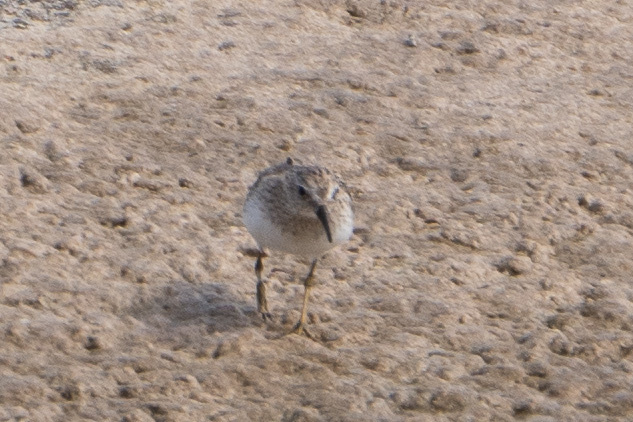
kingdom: Animalia
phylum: Chordata
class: Aves
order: Charadriiformes
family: Scolopacidae
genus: Calidris
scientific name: Calidris minutilla
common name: Least sandpiper
